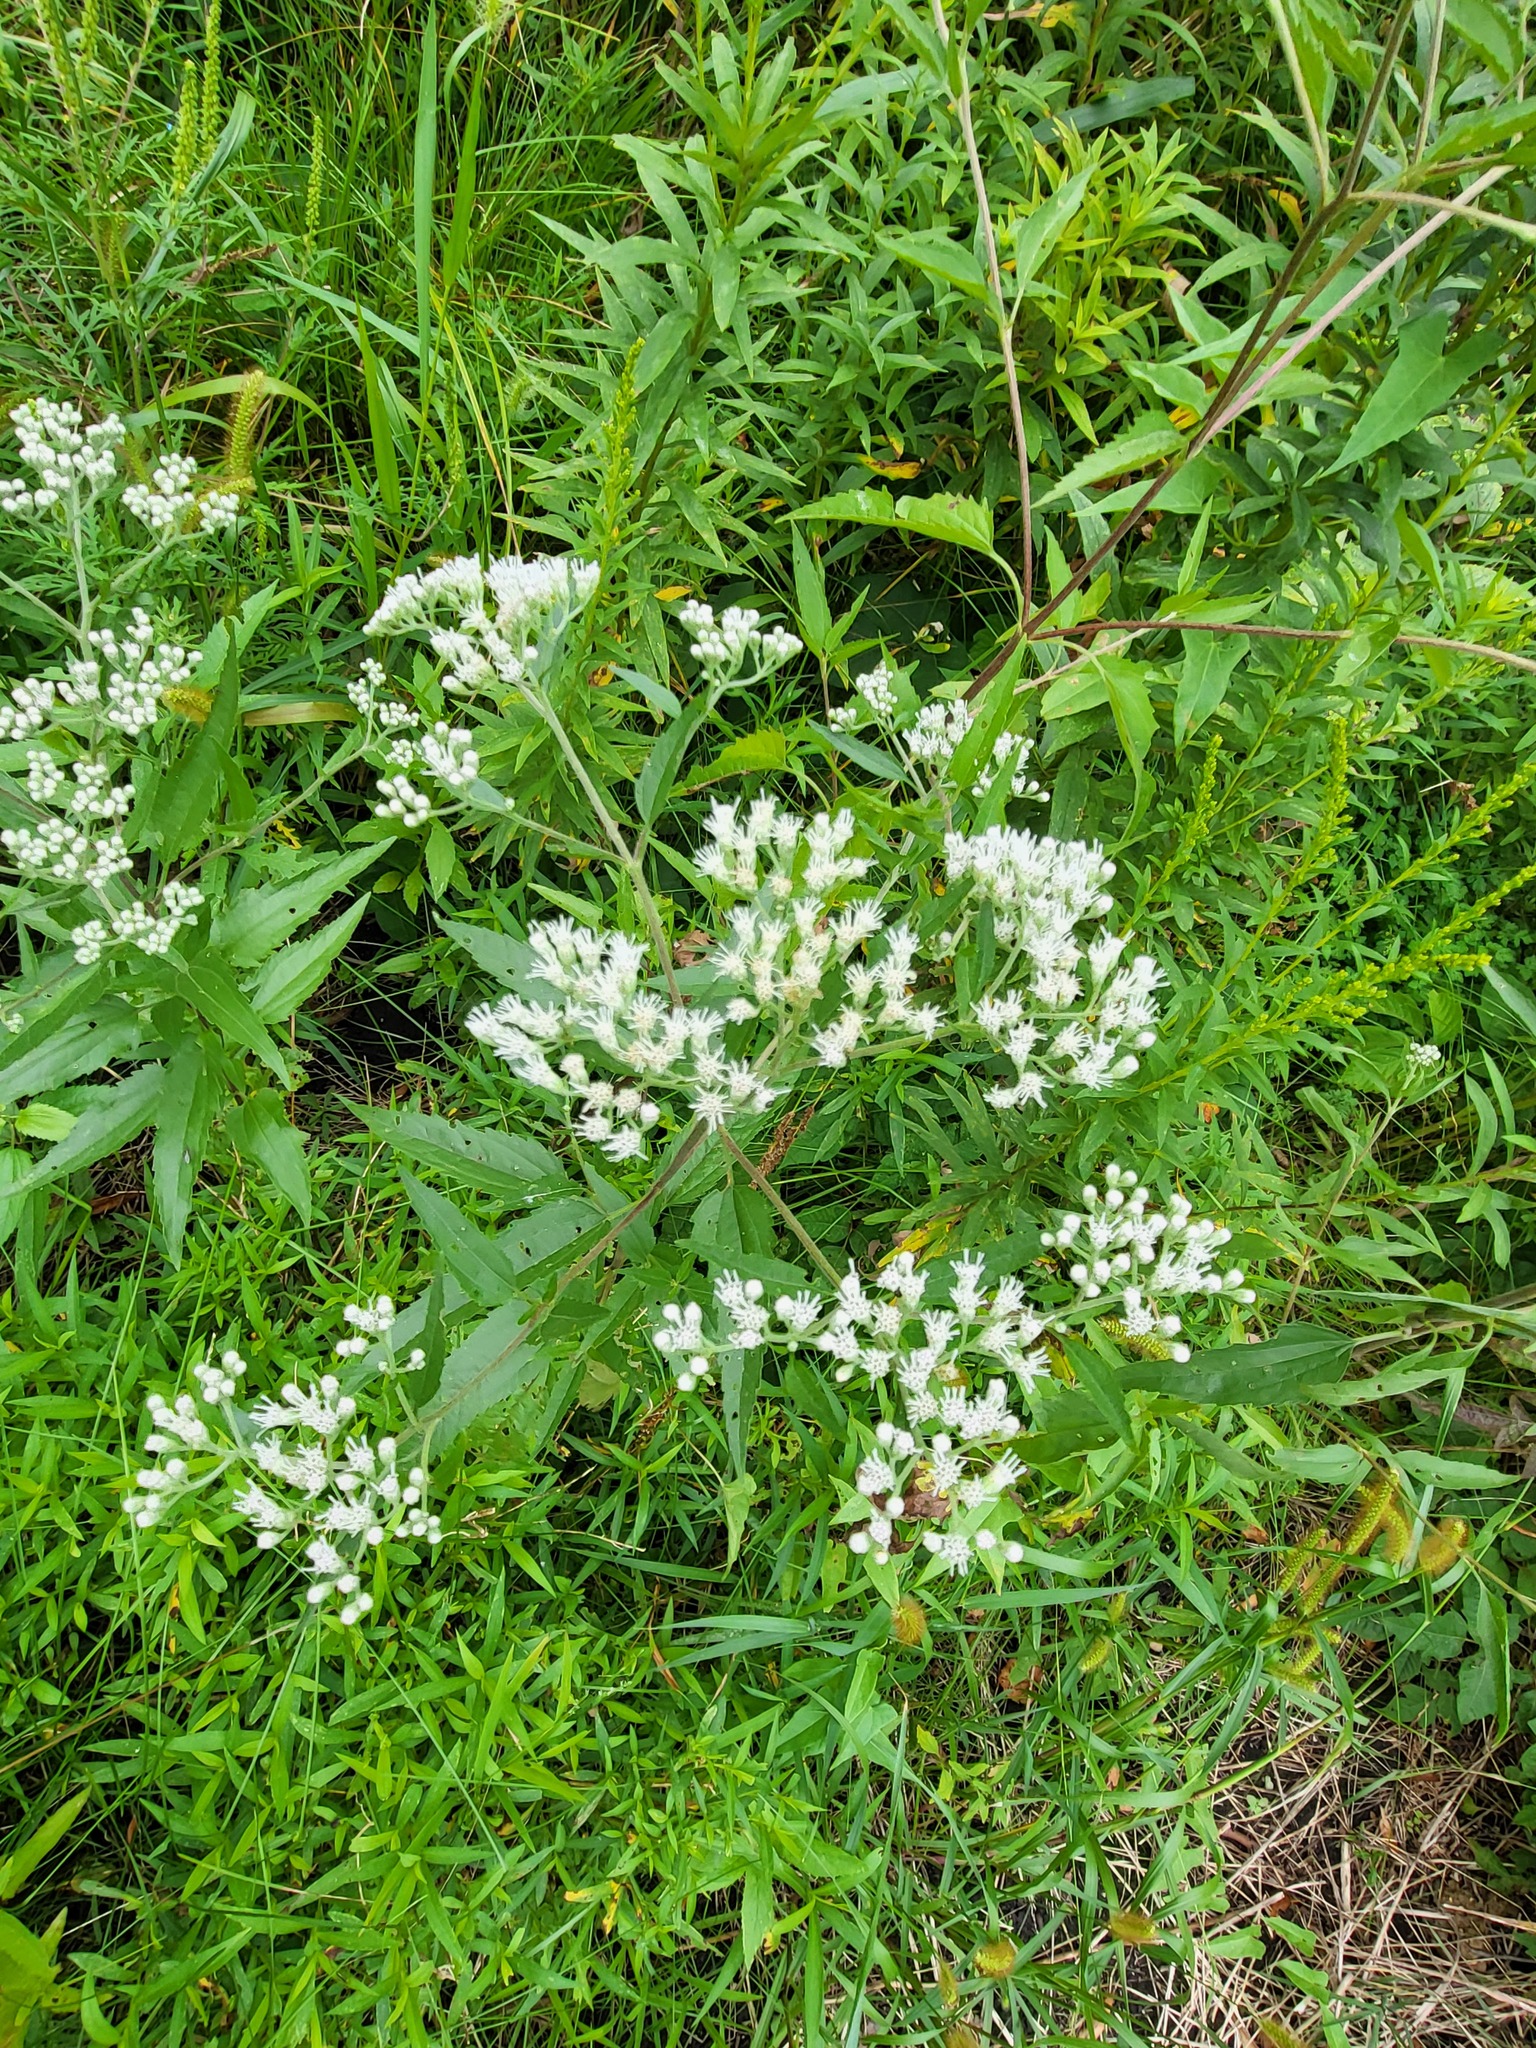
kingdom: Plantae
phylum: Tracheophyta
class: Magnoliopsida
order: Asterales
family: Asteraceae
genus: Eupatorium
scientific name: Eupatorium serotinum
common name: Late boneset
